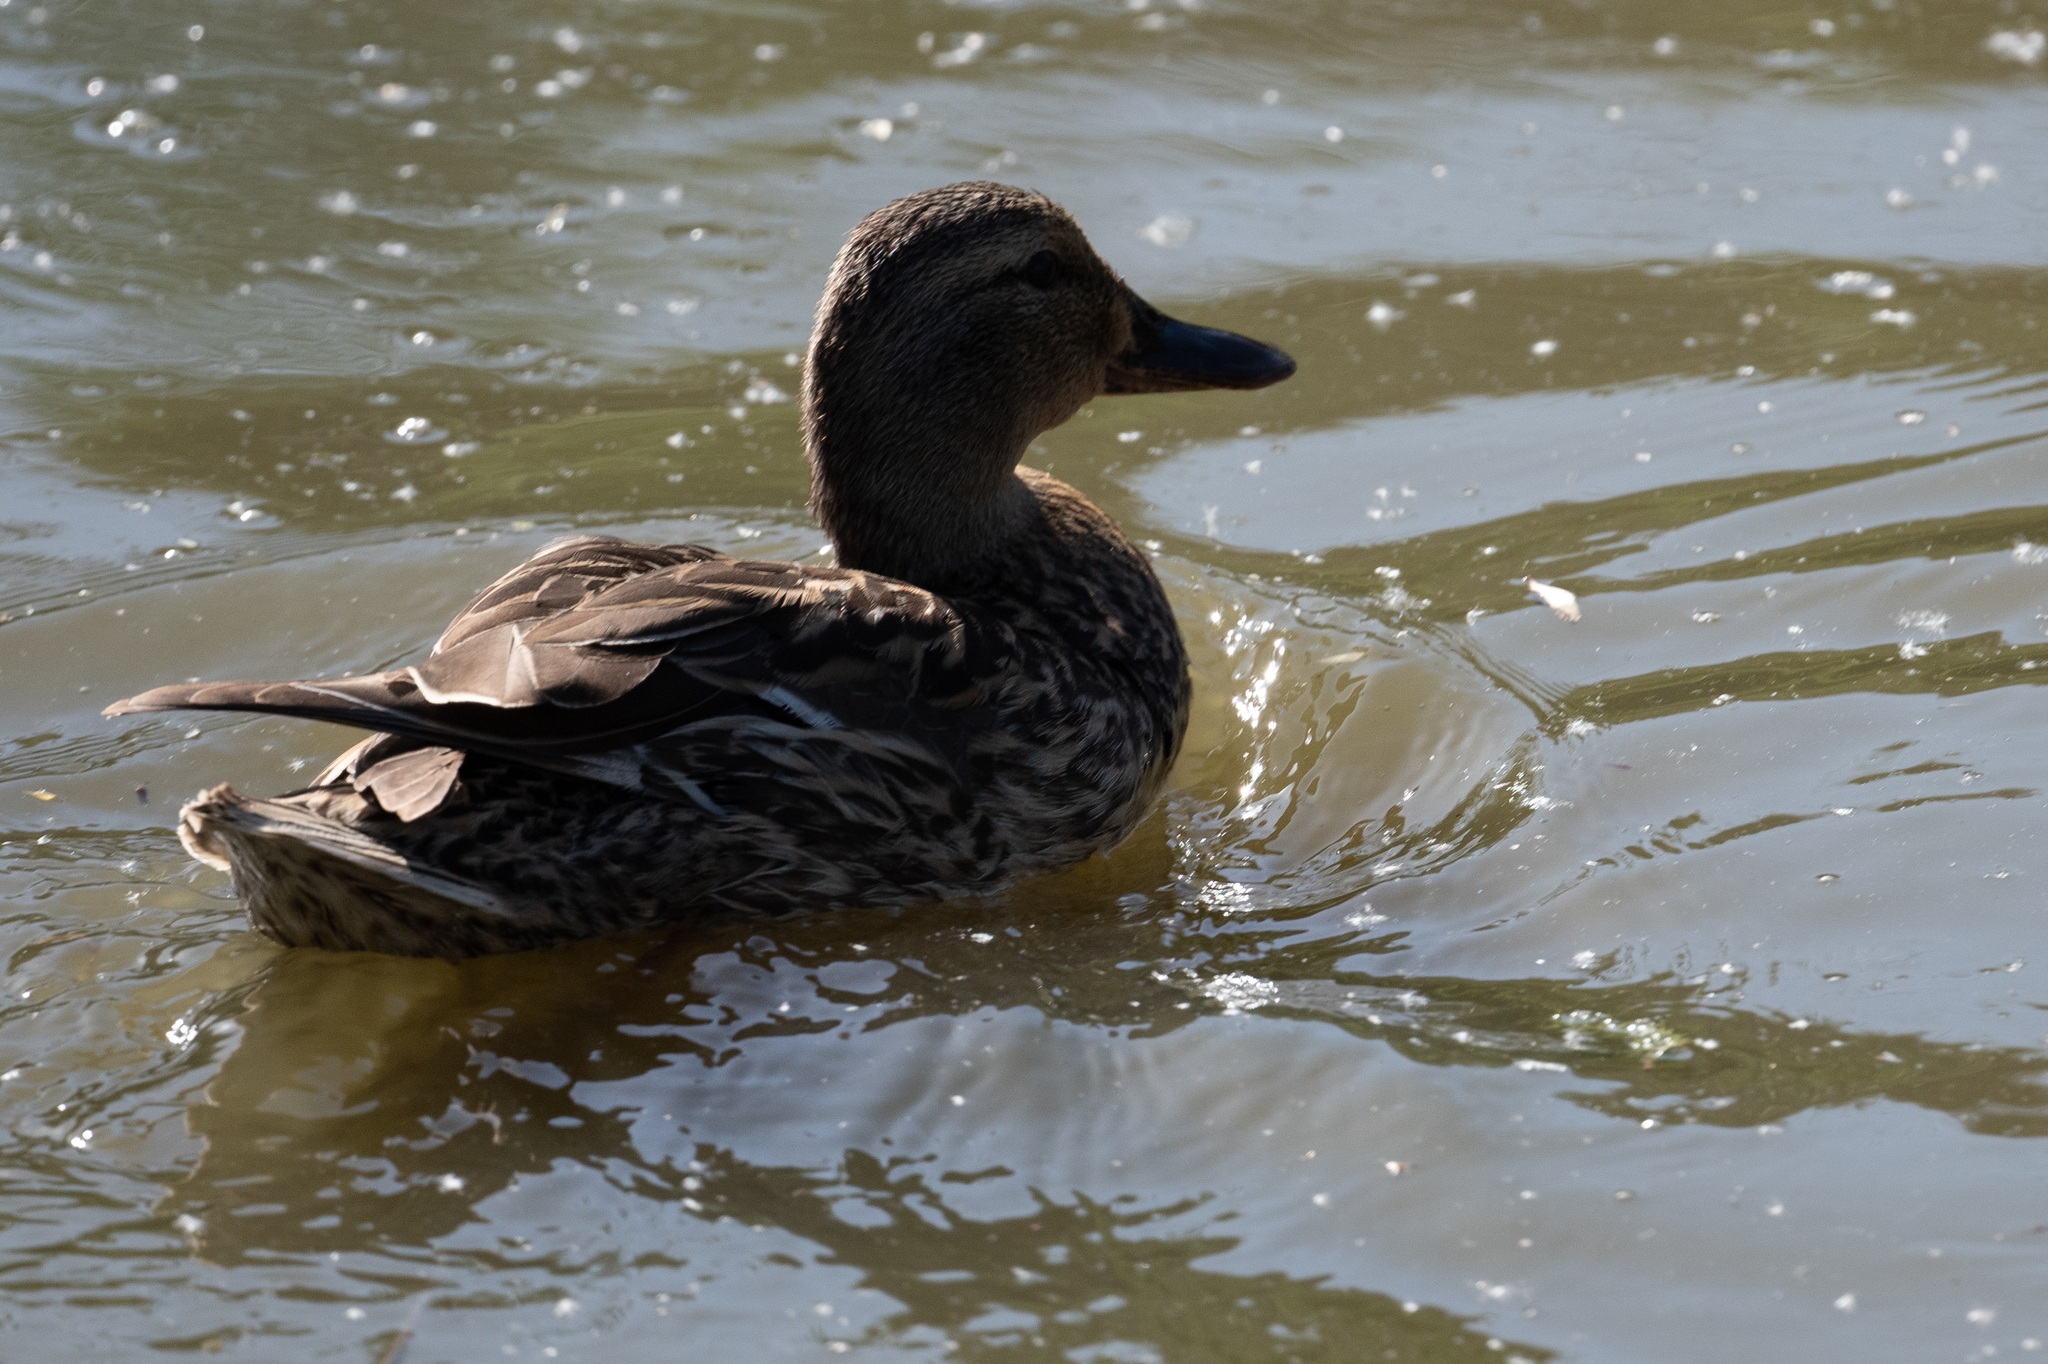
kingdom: Animalia
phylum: Chordata
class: Aves
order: Anseriformes
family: Anatidae
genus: Anas
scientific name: Anas platyrhynchos
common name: Mallard
